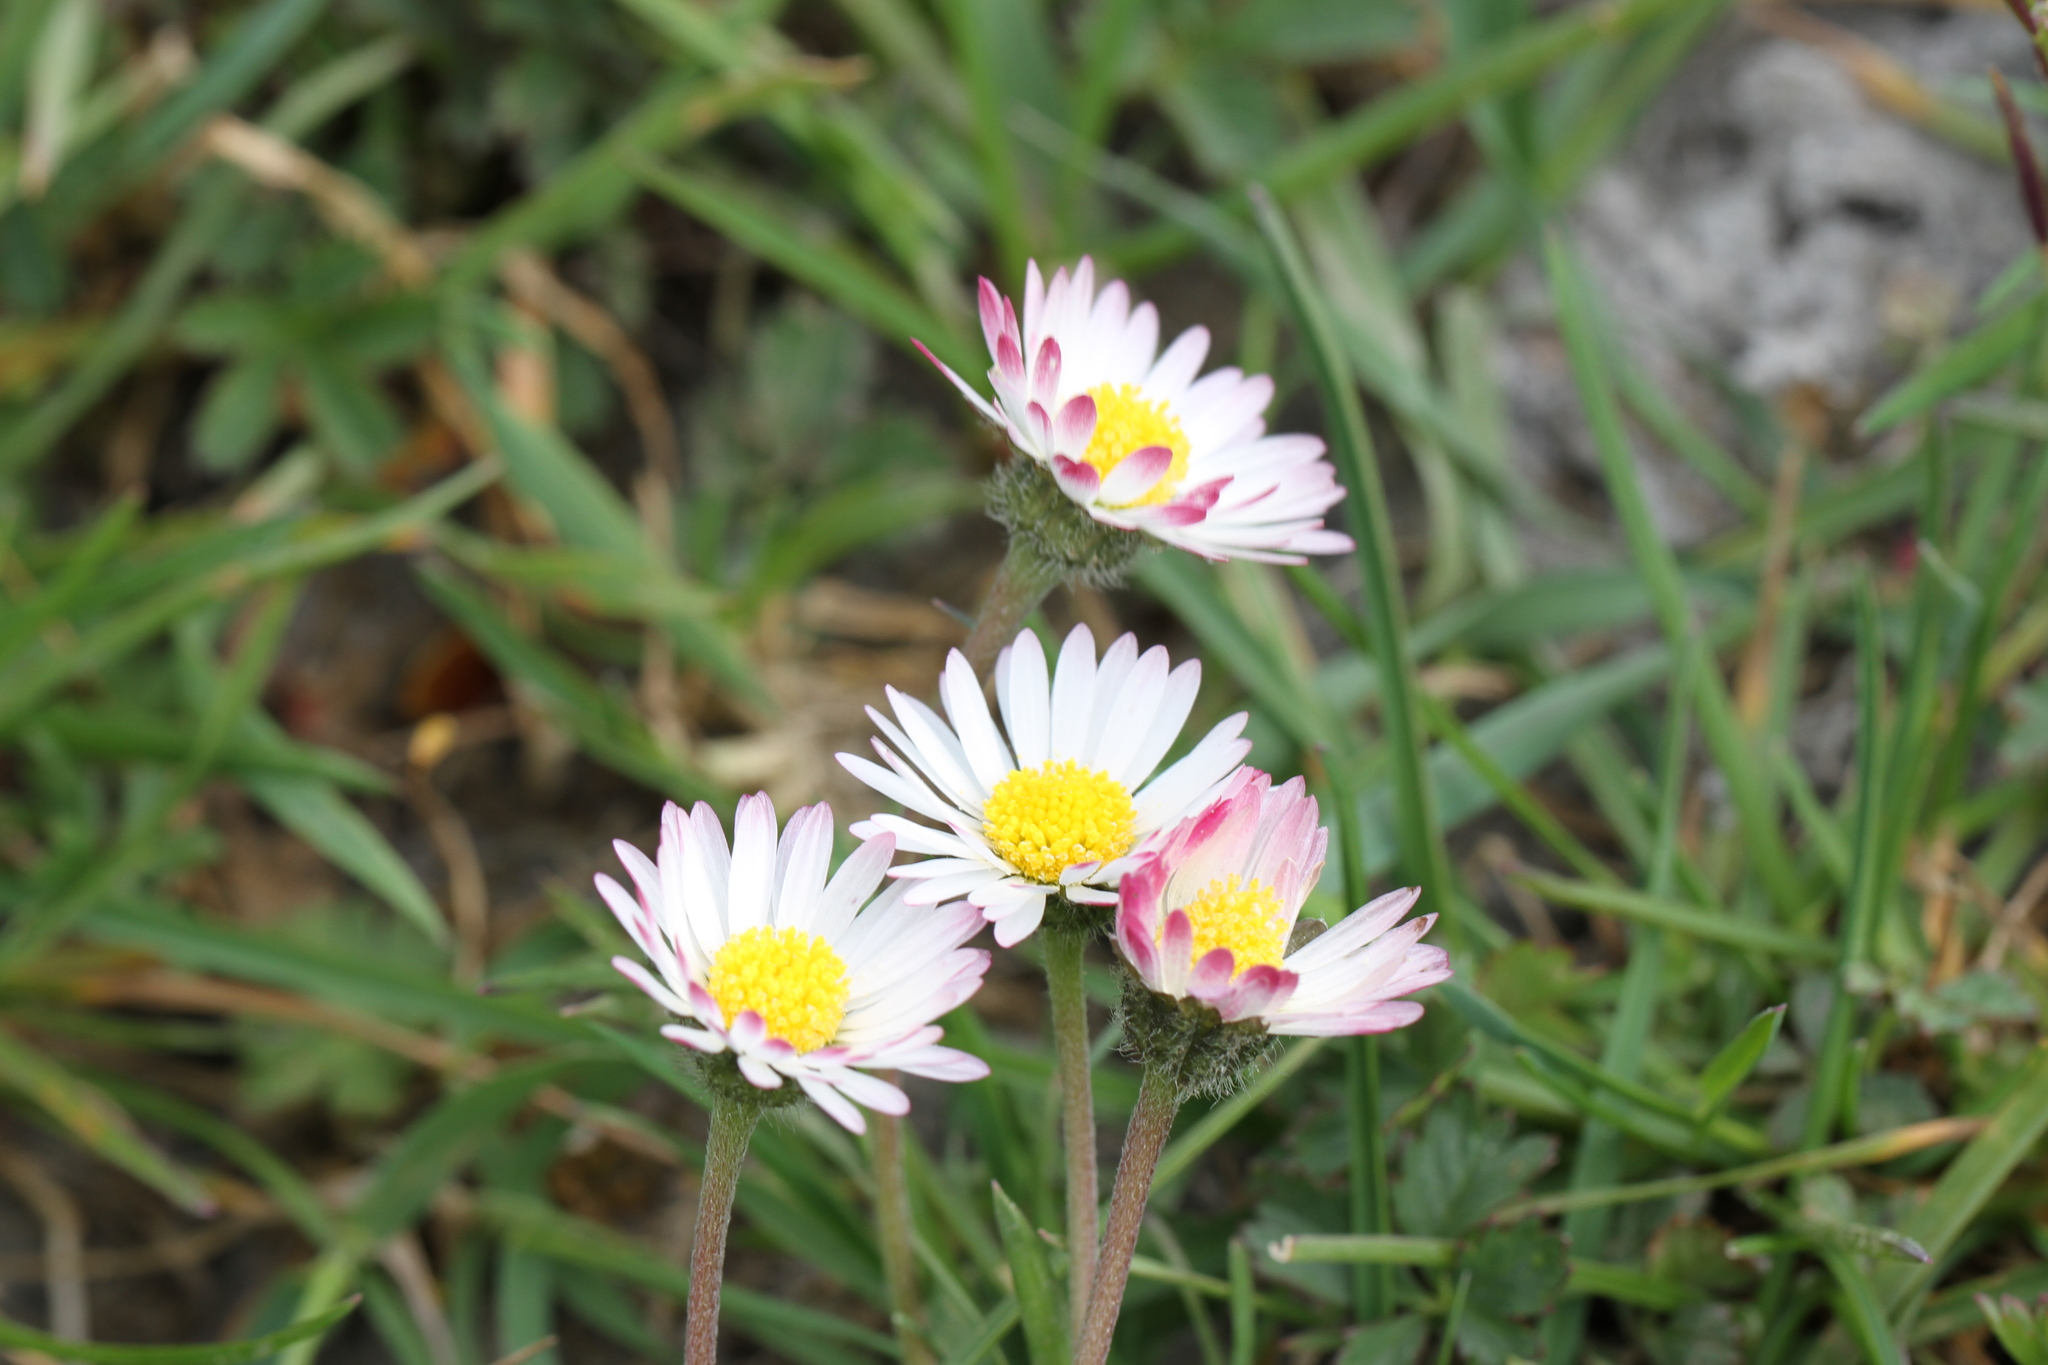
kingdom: Plantae
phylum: Tracheophyta
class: Magnoliopsida
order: Asterales
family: Asteraceae
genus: Bellis
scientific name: Bellis perennis
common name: Lawndaisy
